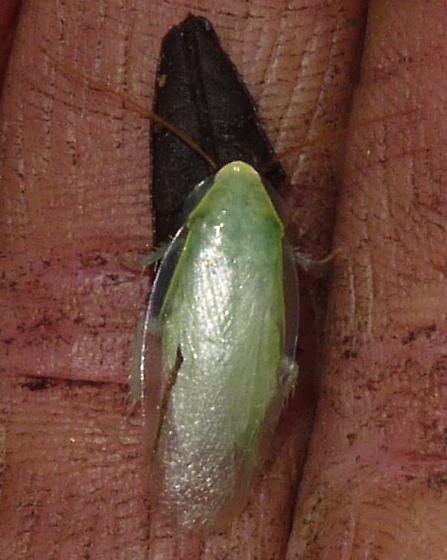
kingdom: Animalia
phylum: Arthropoda
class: Insecta
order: Blattodea
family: Blaberidae
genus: Panchlora
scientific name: Panchlora nivea
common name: Cuban cockroach
